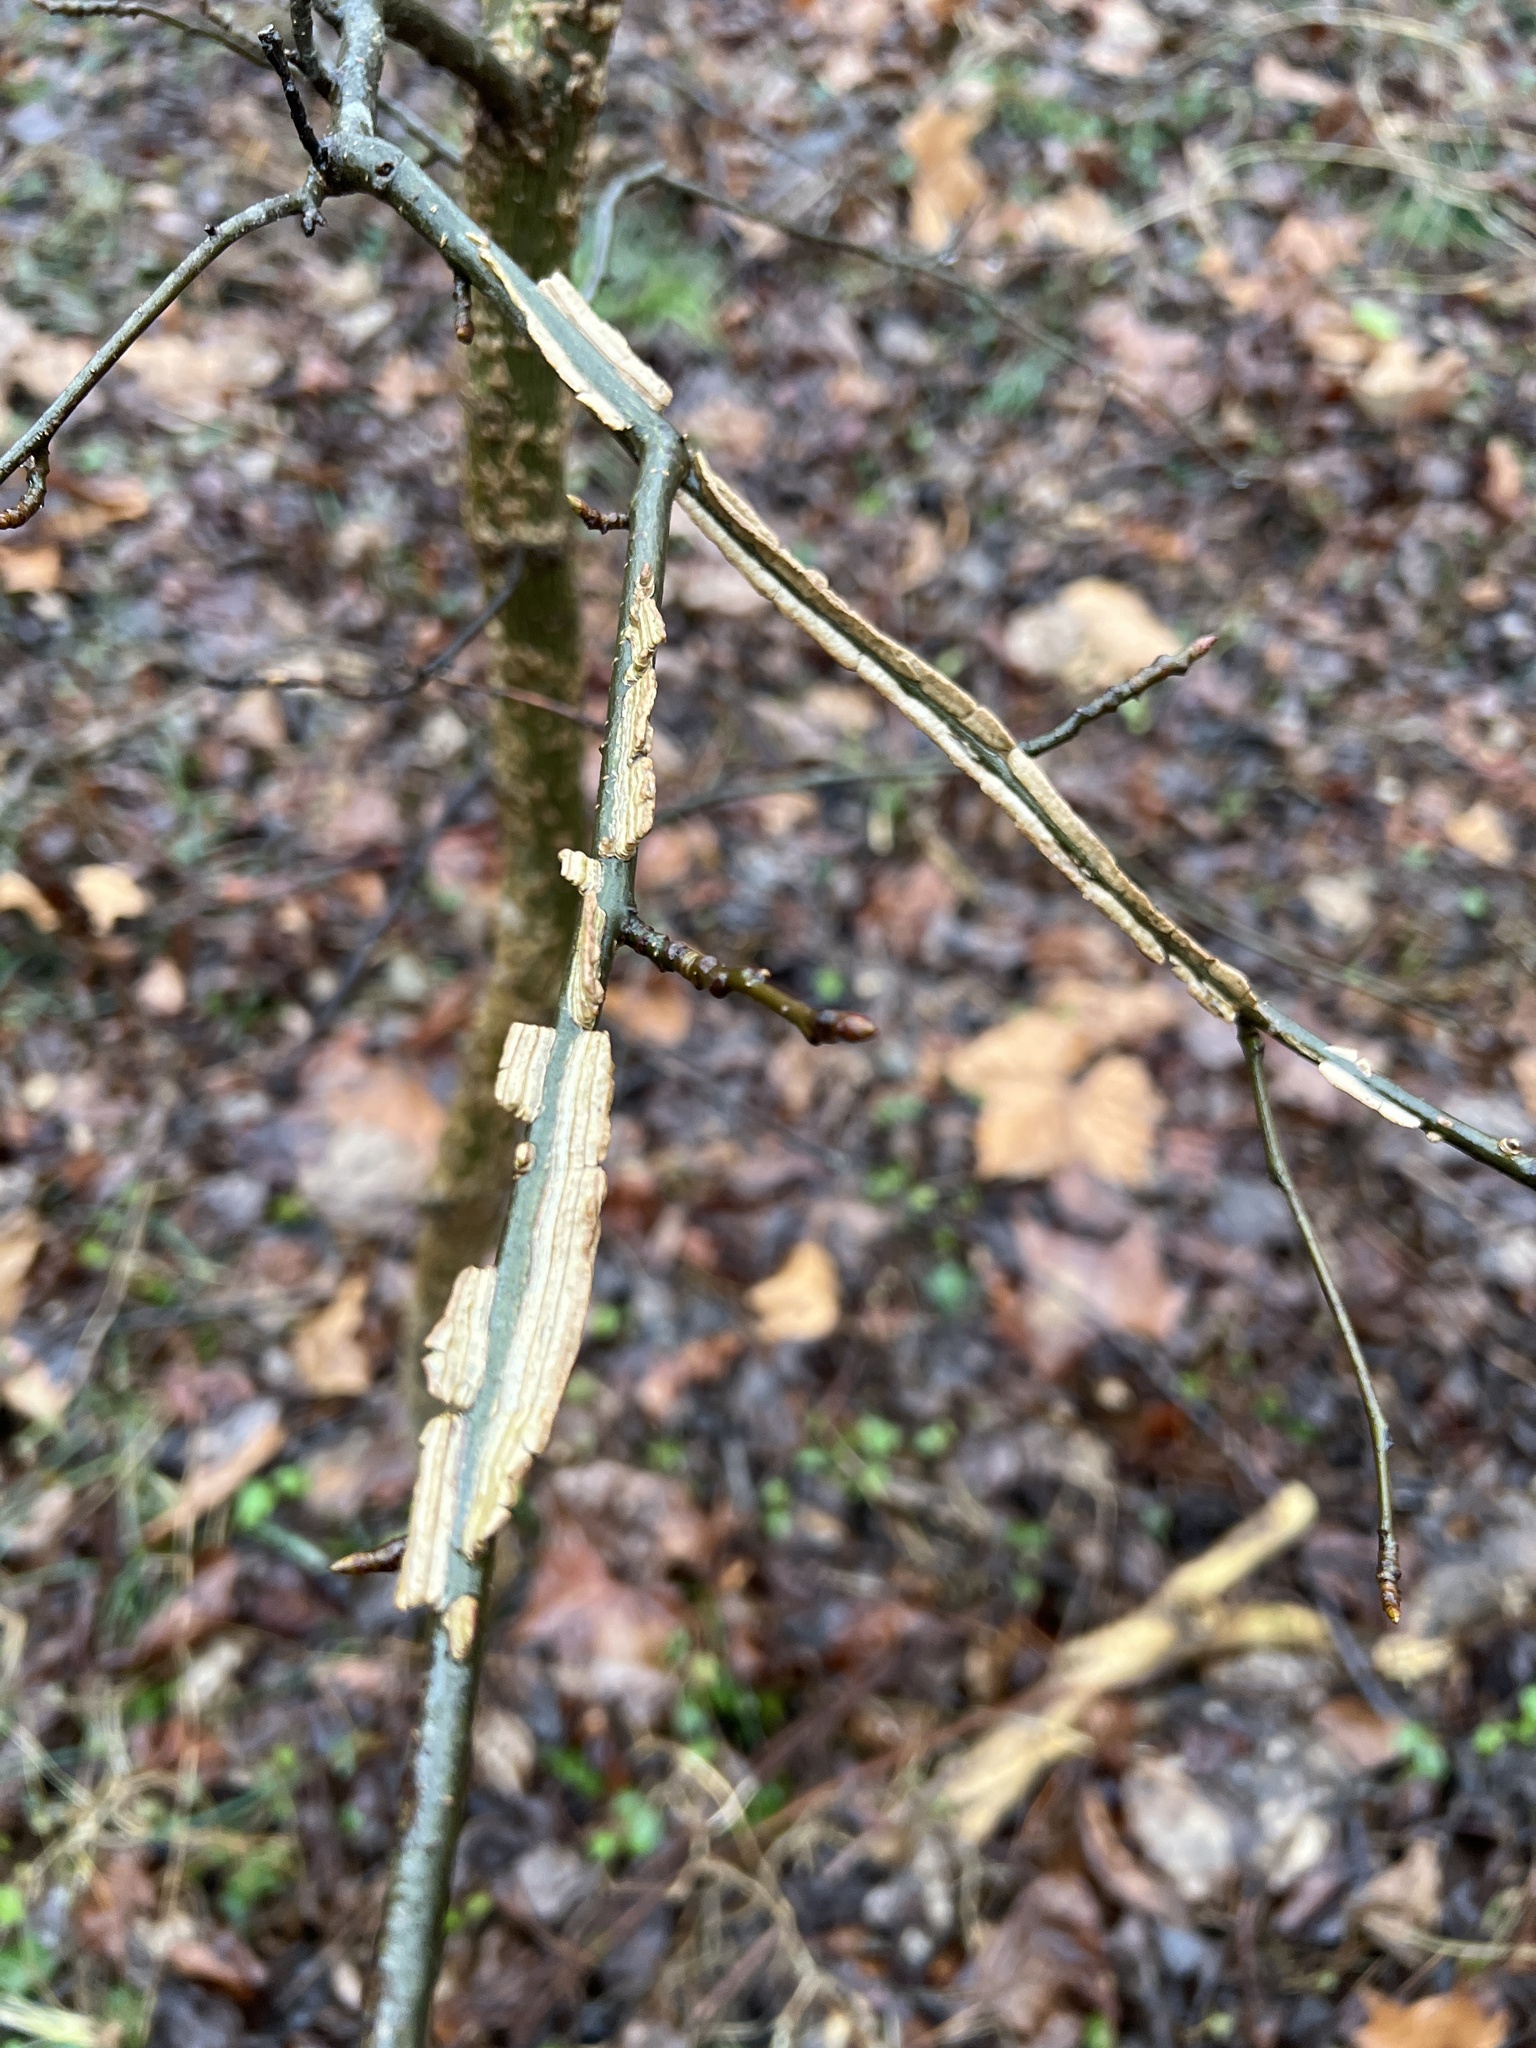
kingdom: Plantae
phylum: Tracheophyta
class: Magnoliopsida
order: Celastrales
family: Celastraceae
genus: Euonymus
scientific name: Euonymus alatus
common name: Winged euonymus
